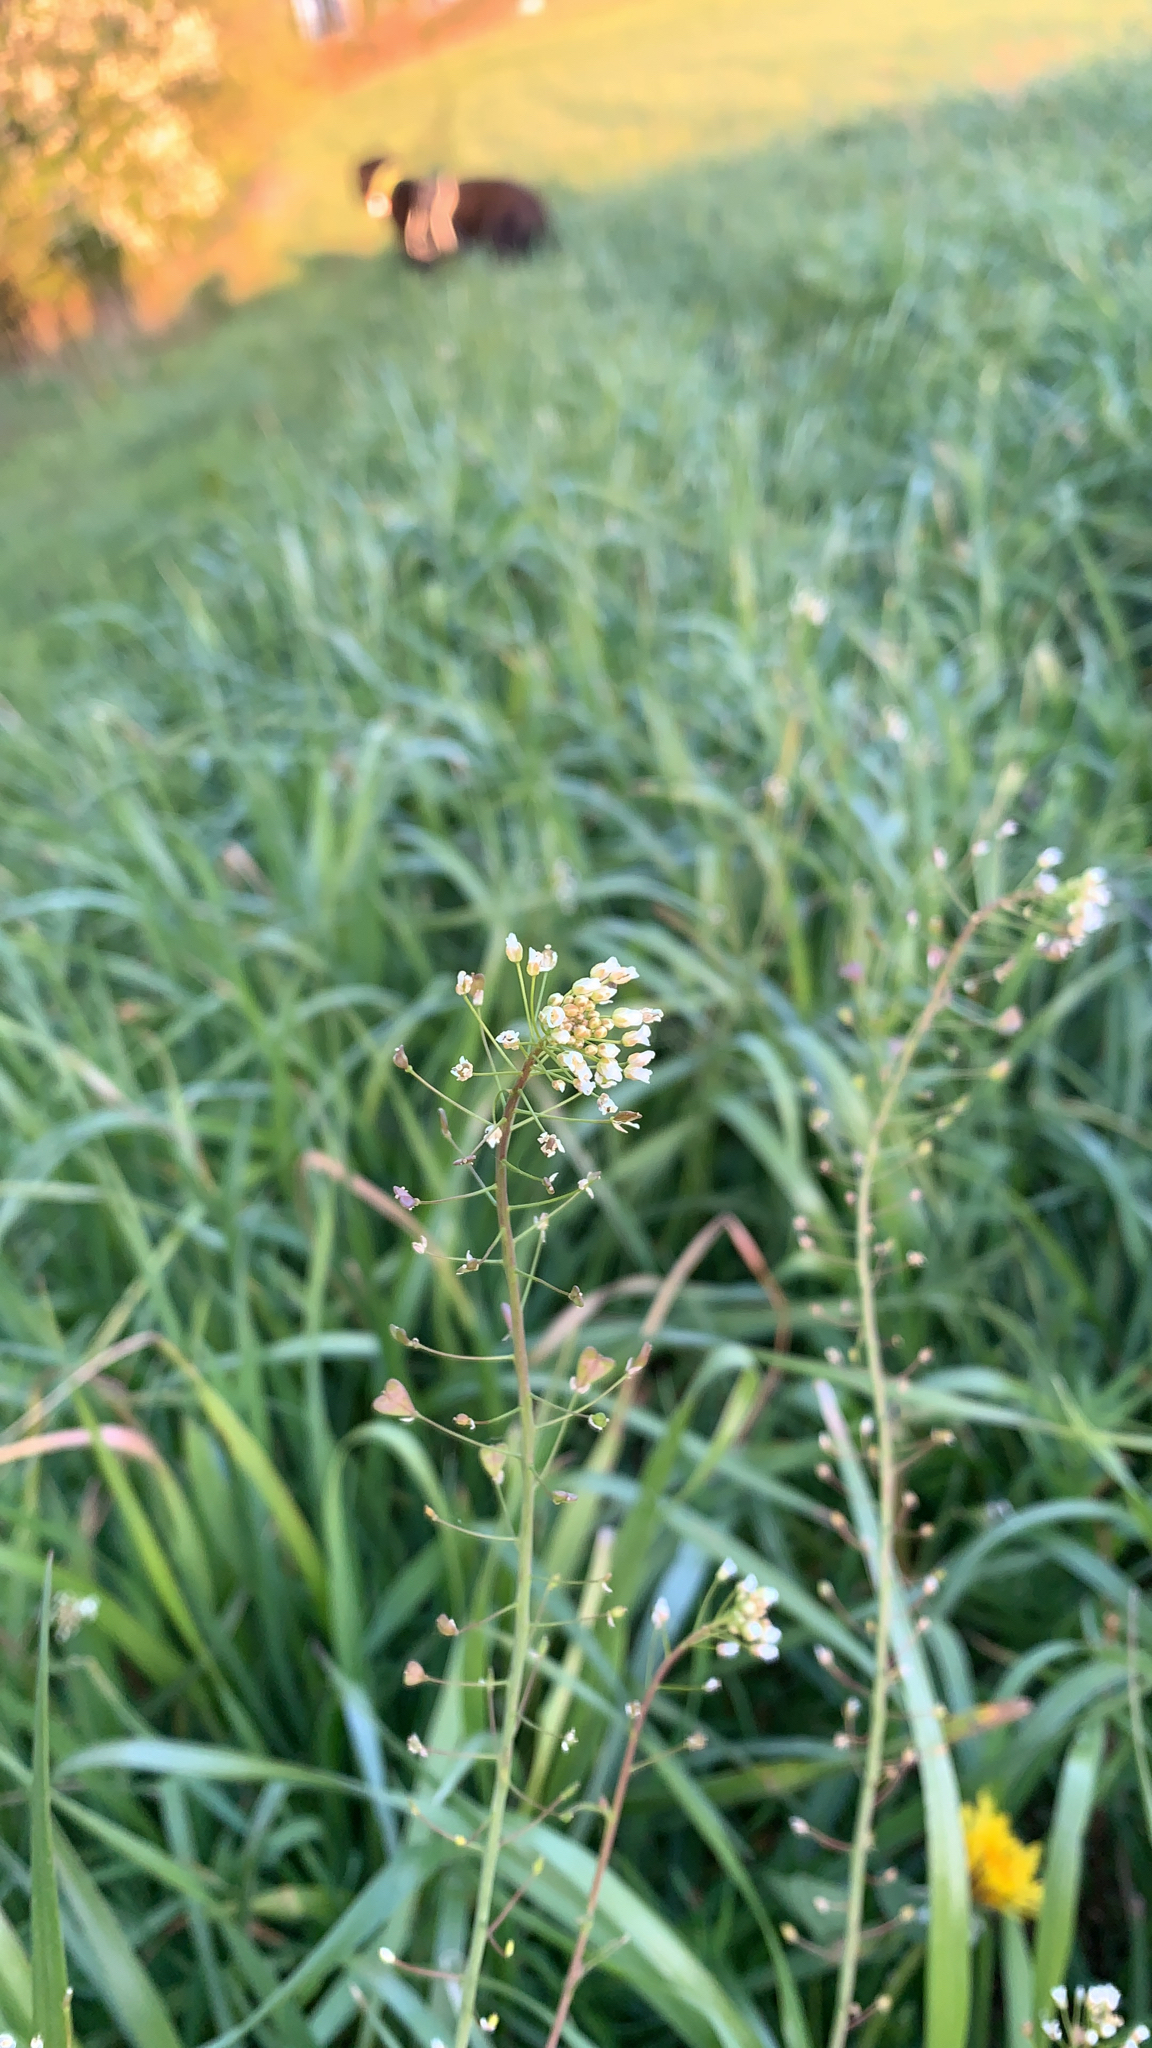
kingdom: Plantae
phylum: Tracheophyta
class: Magnoliopsida
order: Brassicales
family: Brassicaceae
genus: Capsella
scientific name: Capsella bursa-pastoris
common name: Shepherd's purse
